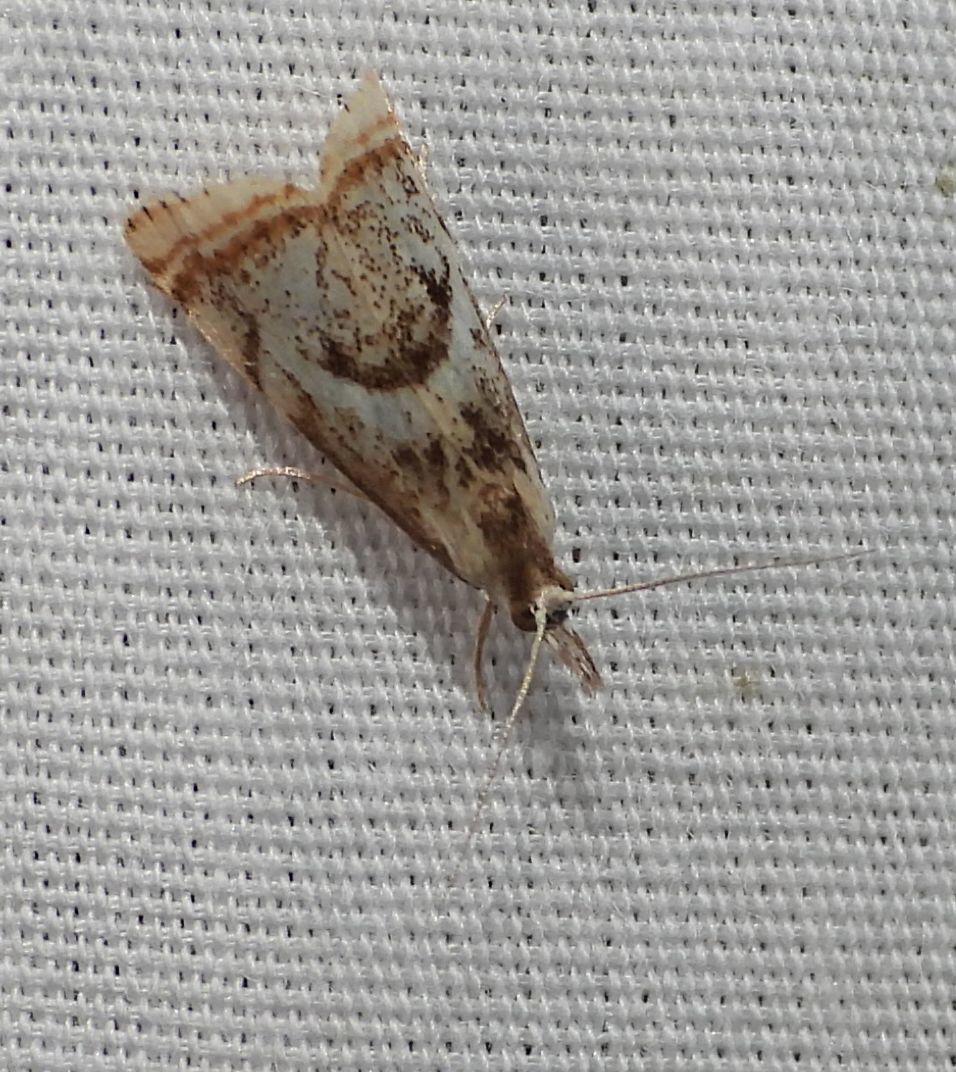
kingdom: Animalia
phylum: Arthropoda
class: Insecta
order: Lepidoptera
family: Crambidae
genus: Microcrambus
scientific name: Microcrambus elegans
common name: Elegant grass-veneer
